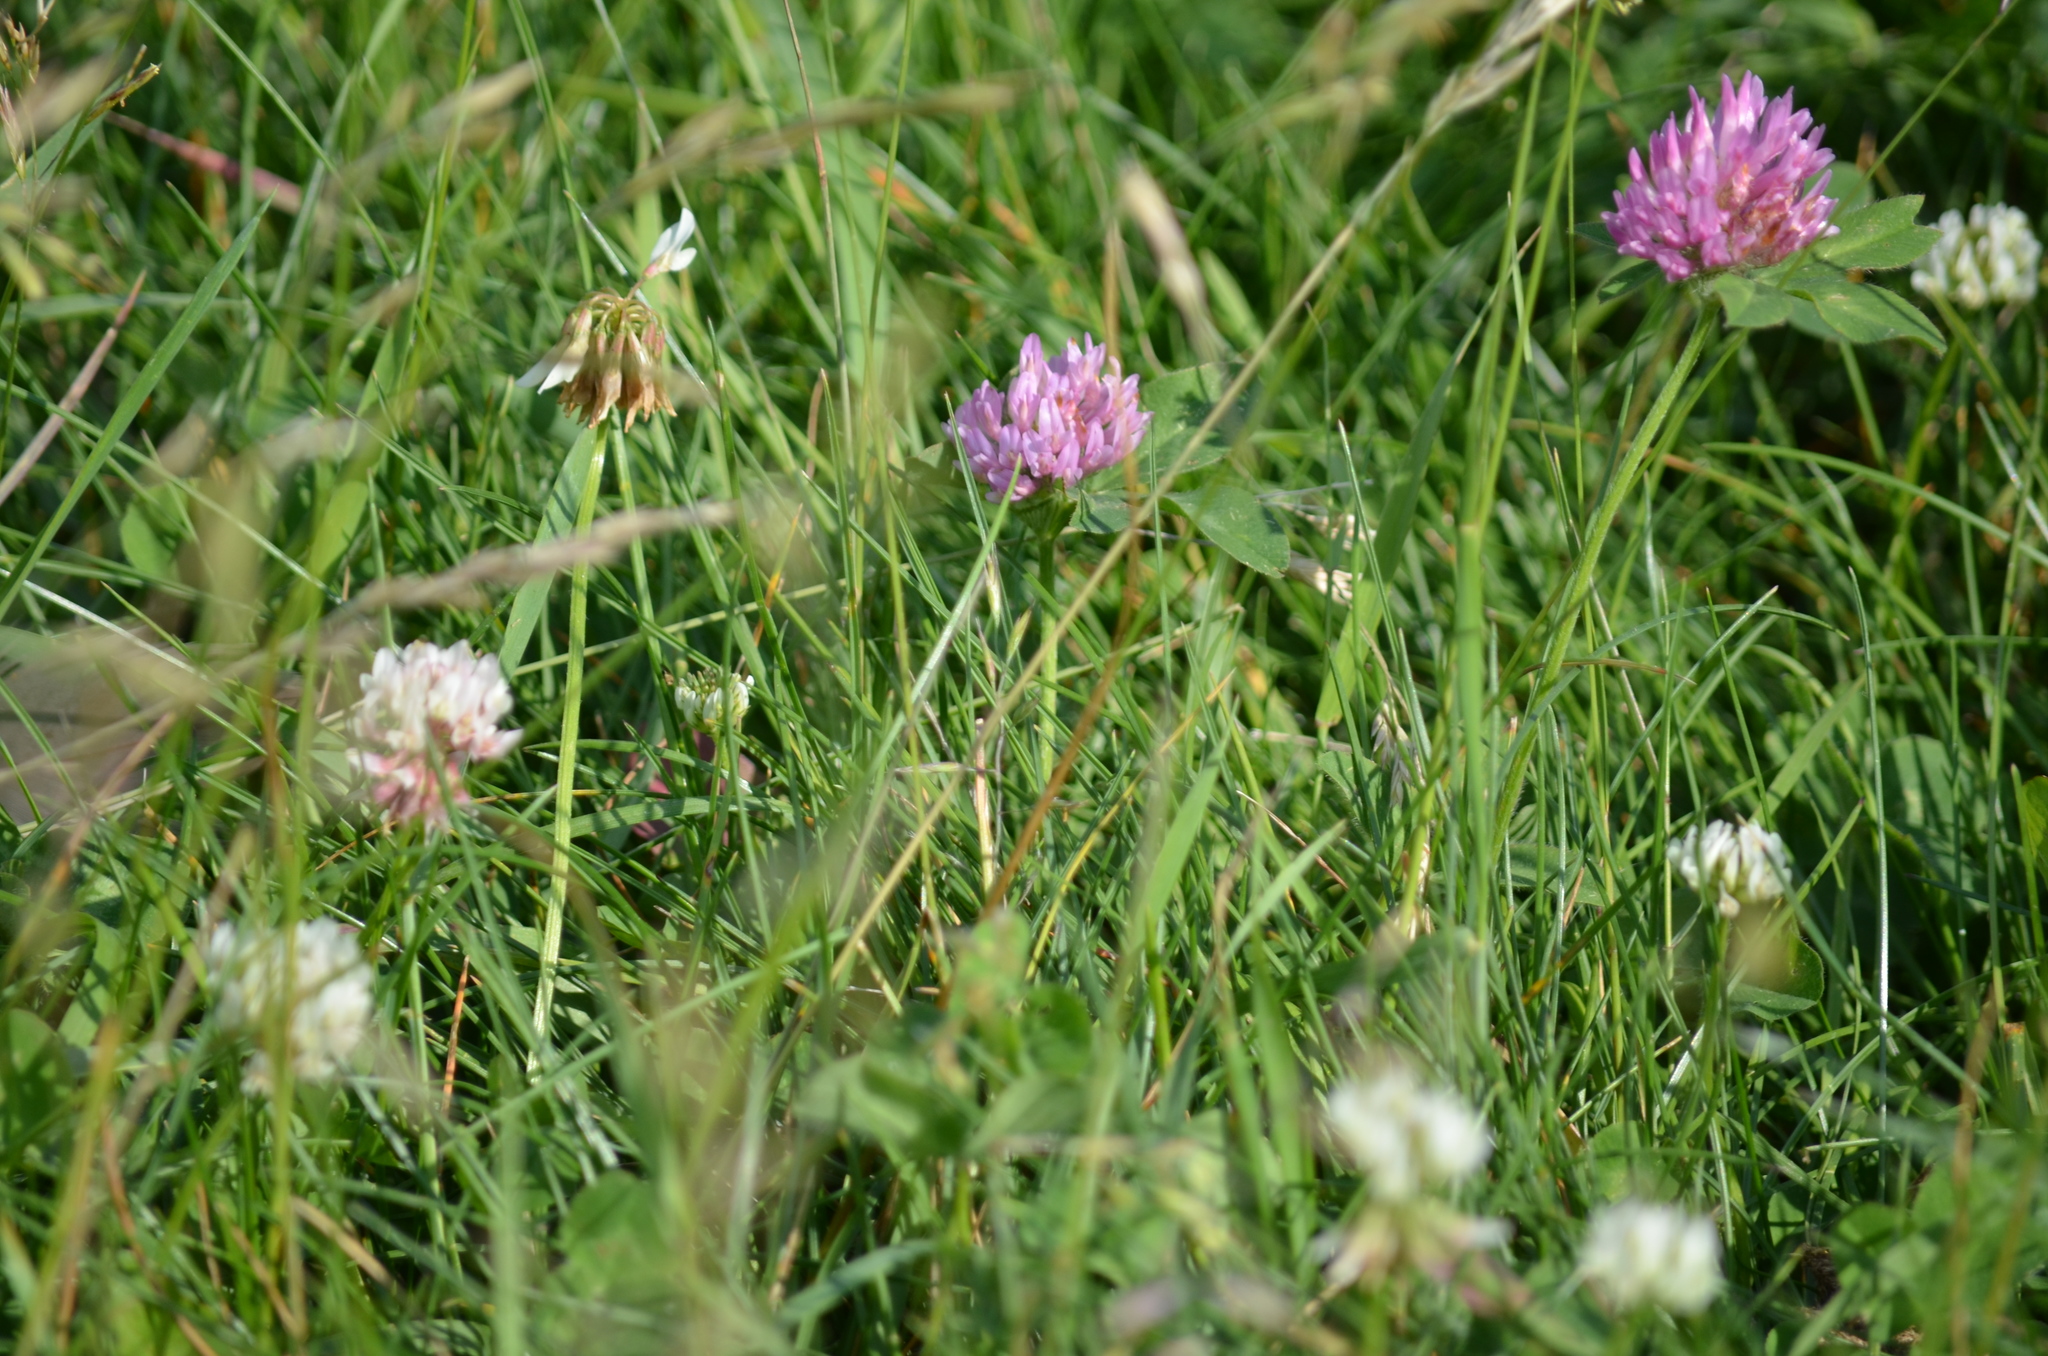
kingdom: Plantae
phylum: Tracheophyta
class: Magnoliopsida
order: Fabales
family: Fabaceae
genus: Trifolium
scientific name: Trifolium pratense
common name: Red clover
